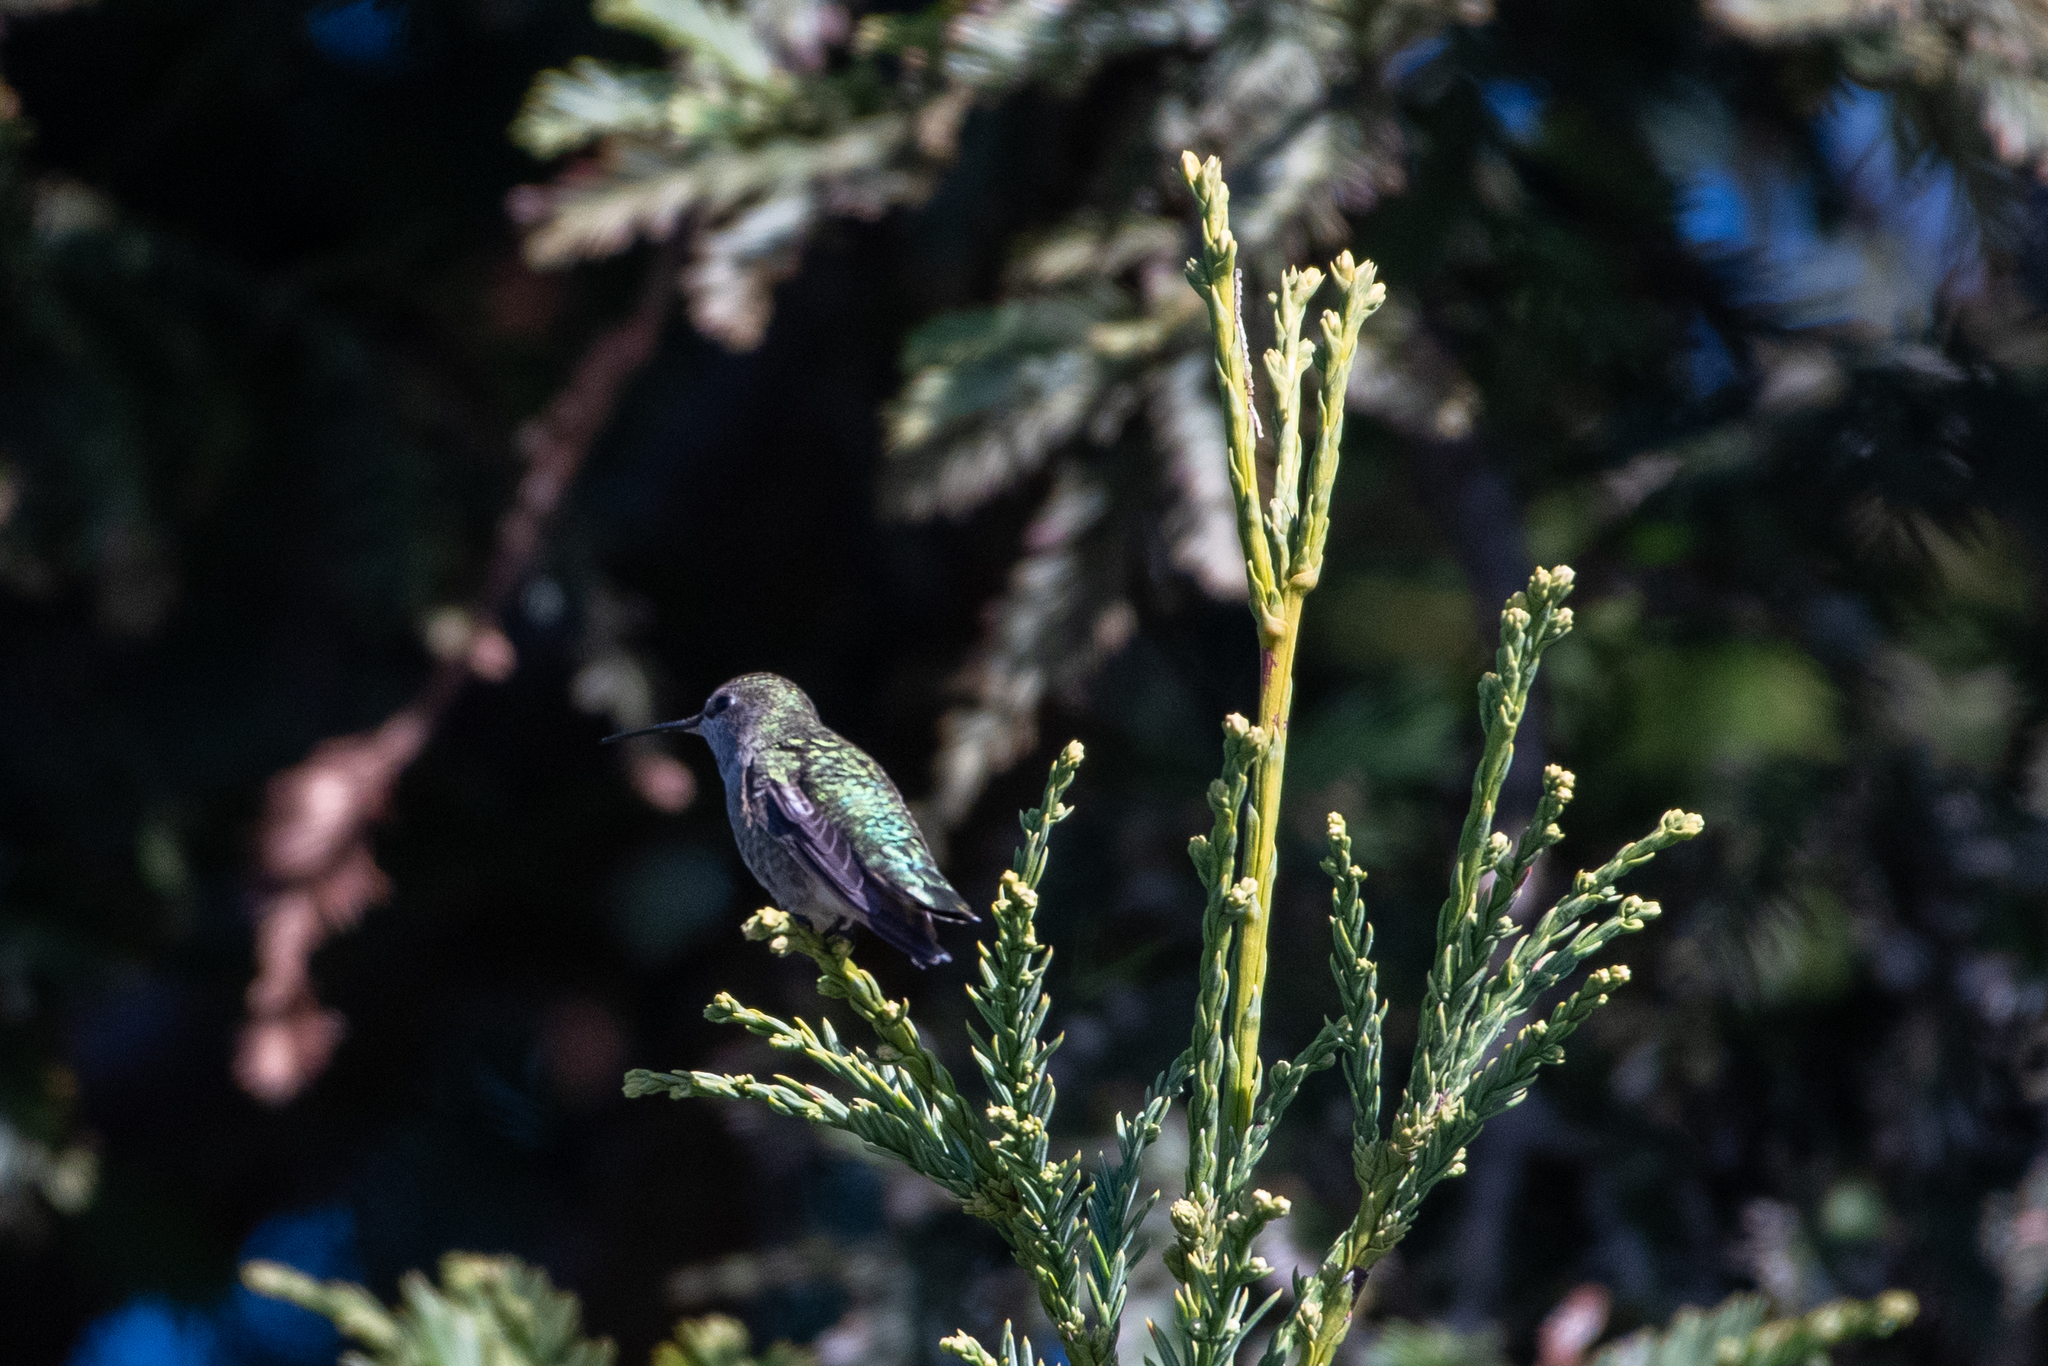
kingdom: Animalia
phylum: Chordata
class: Aves
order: Apodiformes
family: Trochilidae
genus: Calypte
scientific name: Calypte anna
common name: Anna's hummingbird
